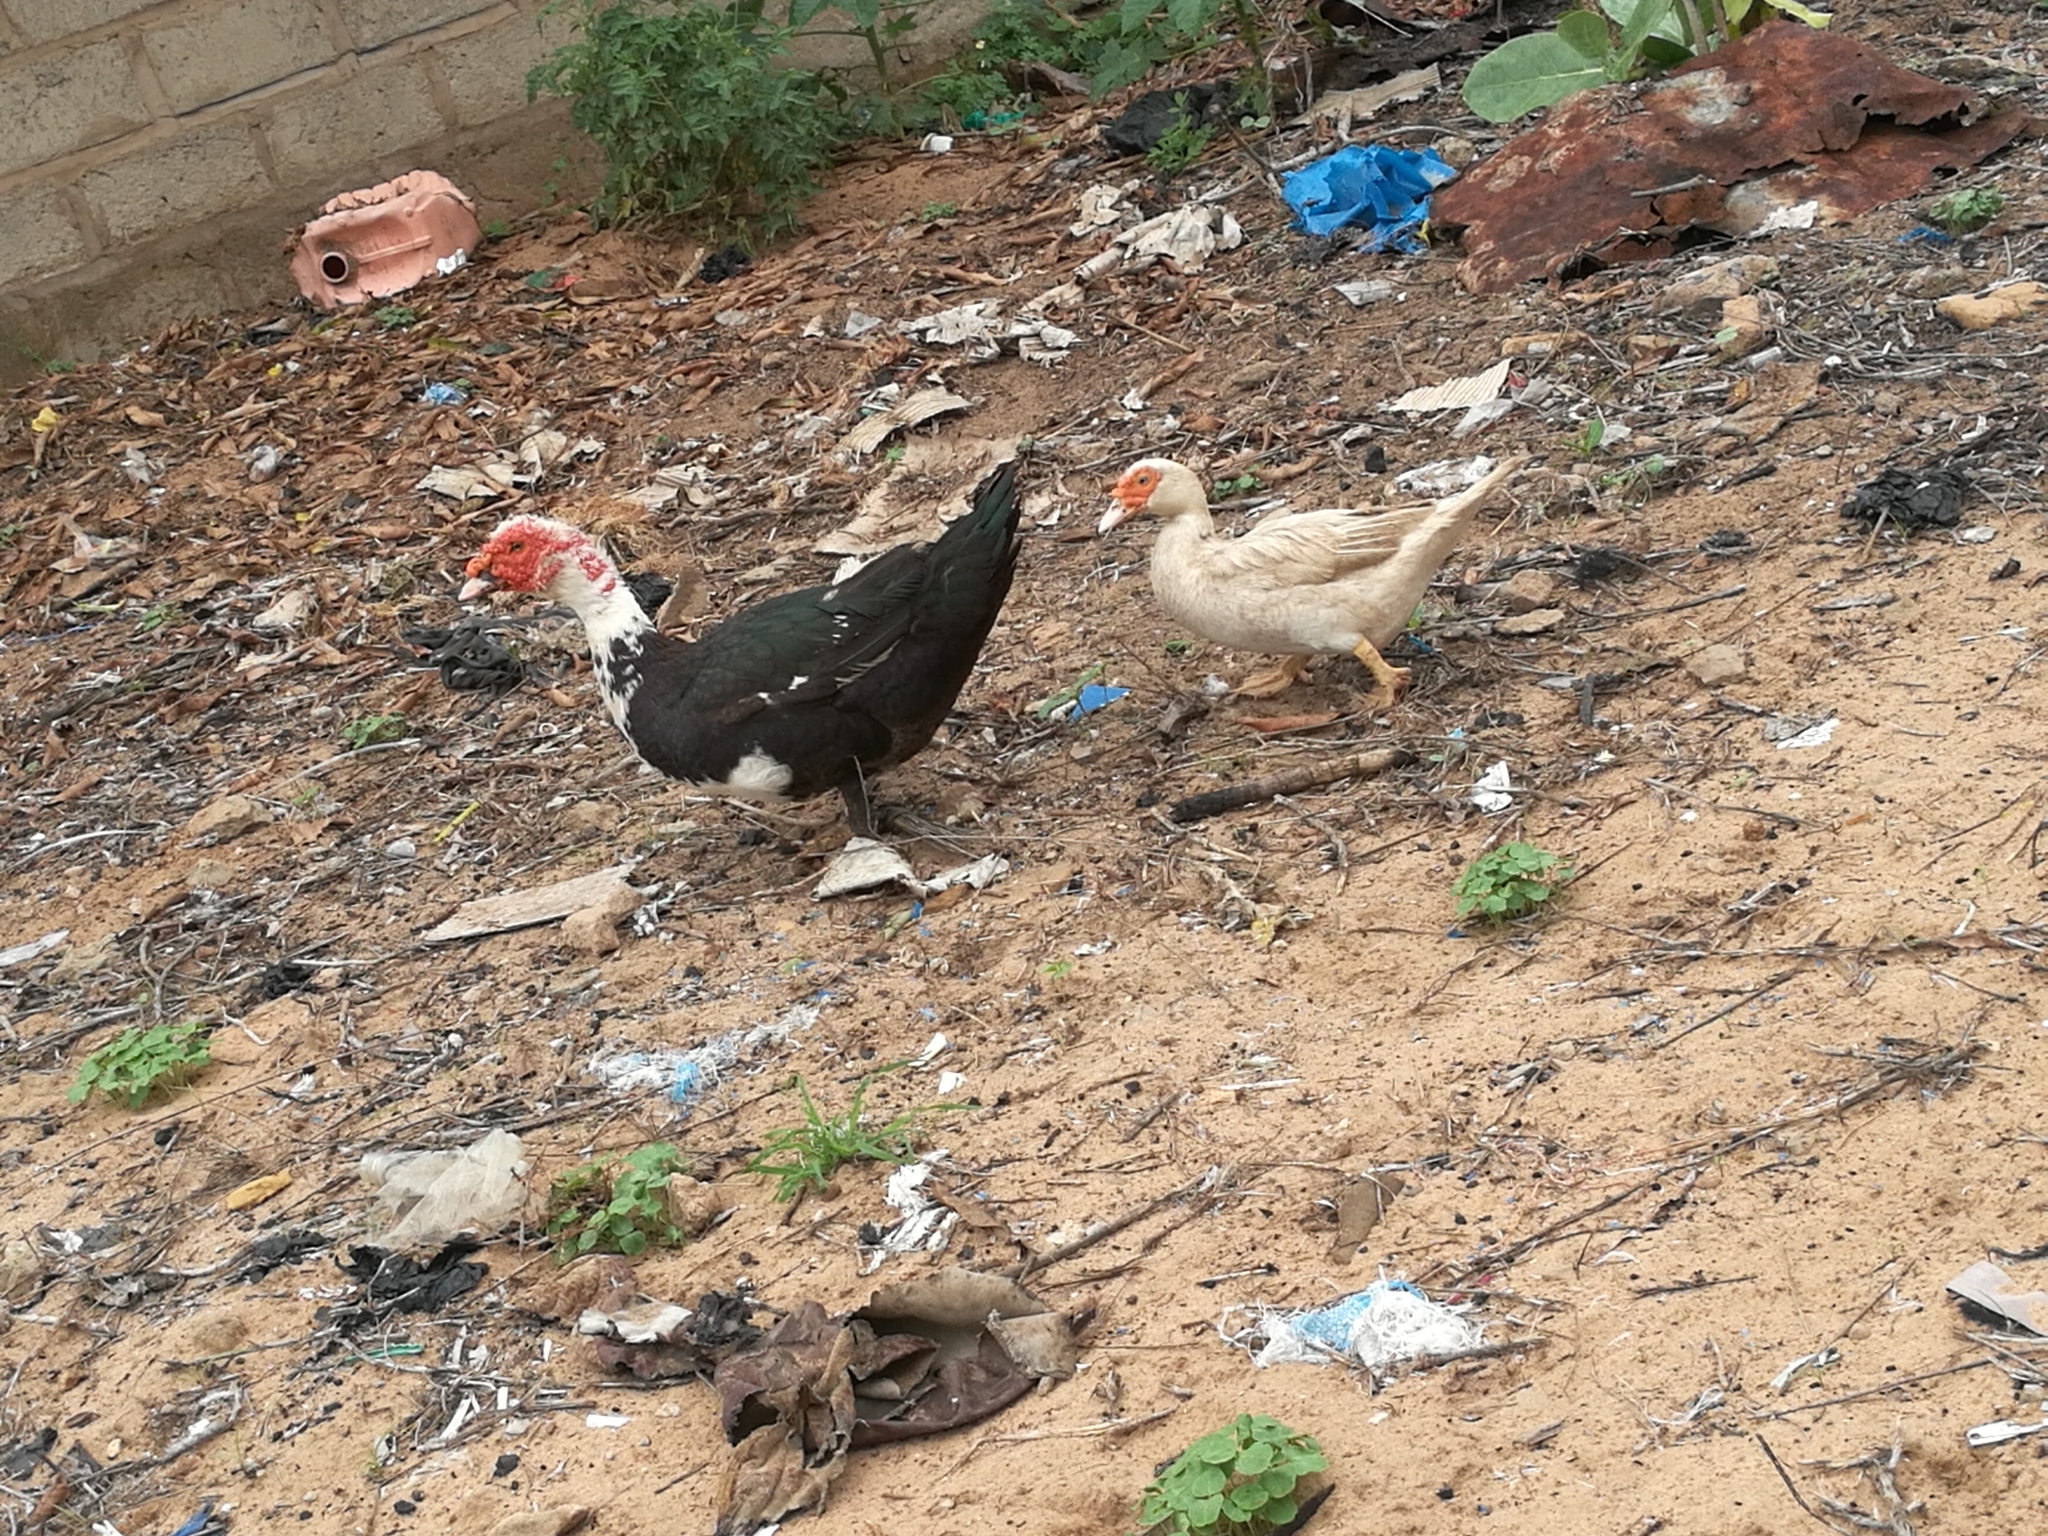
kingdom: Animalia
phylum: Chordata
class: Aves
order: Anseriformes
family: Anatidae
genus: Cairina
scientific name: Cairina moschata
